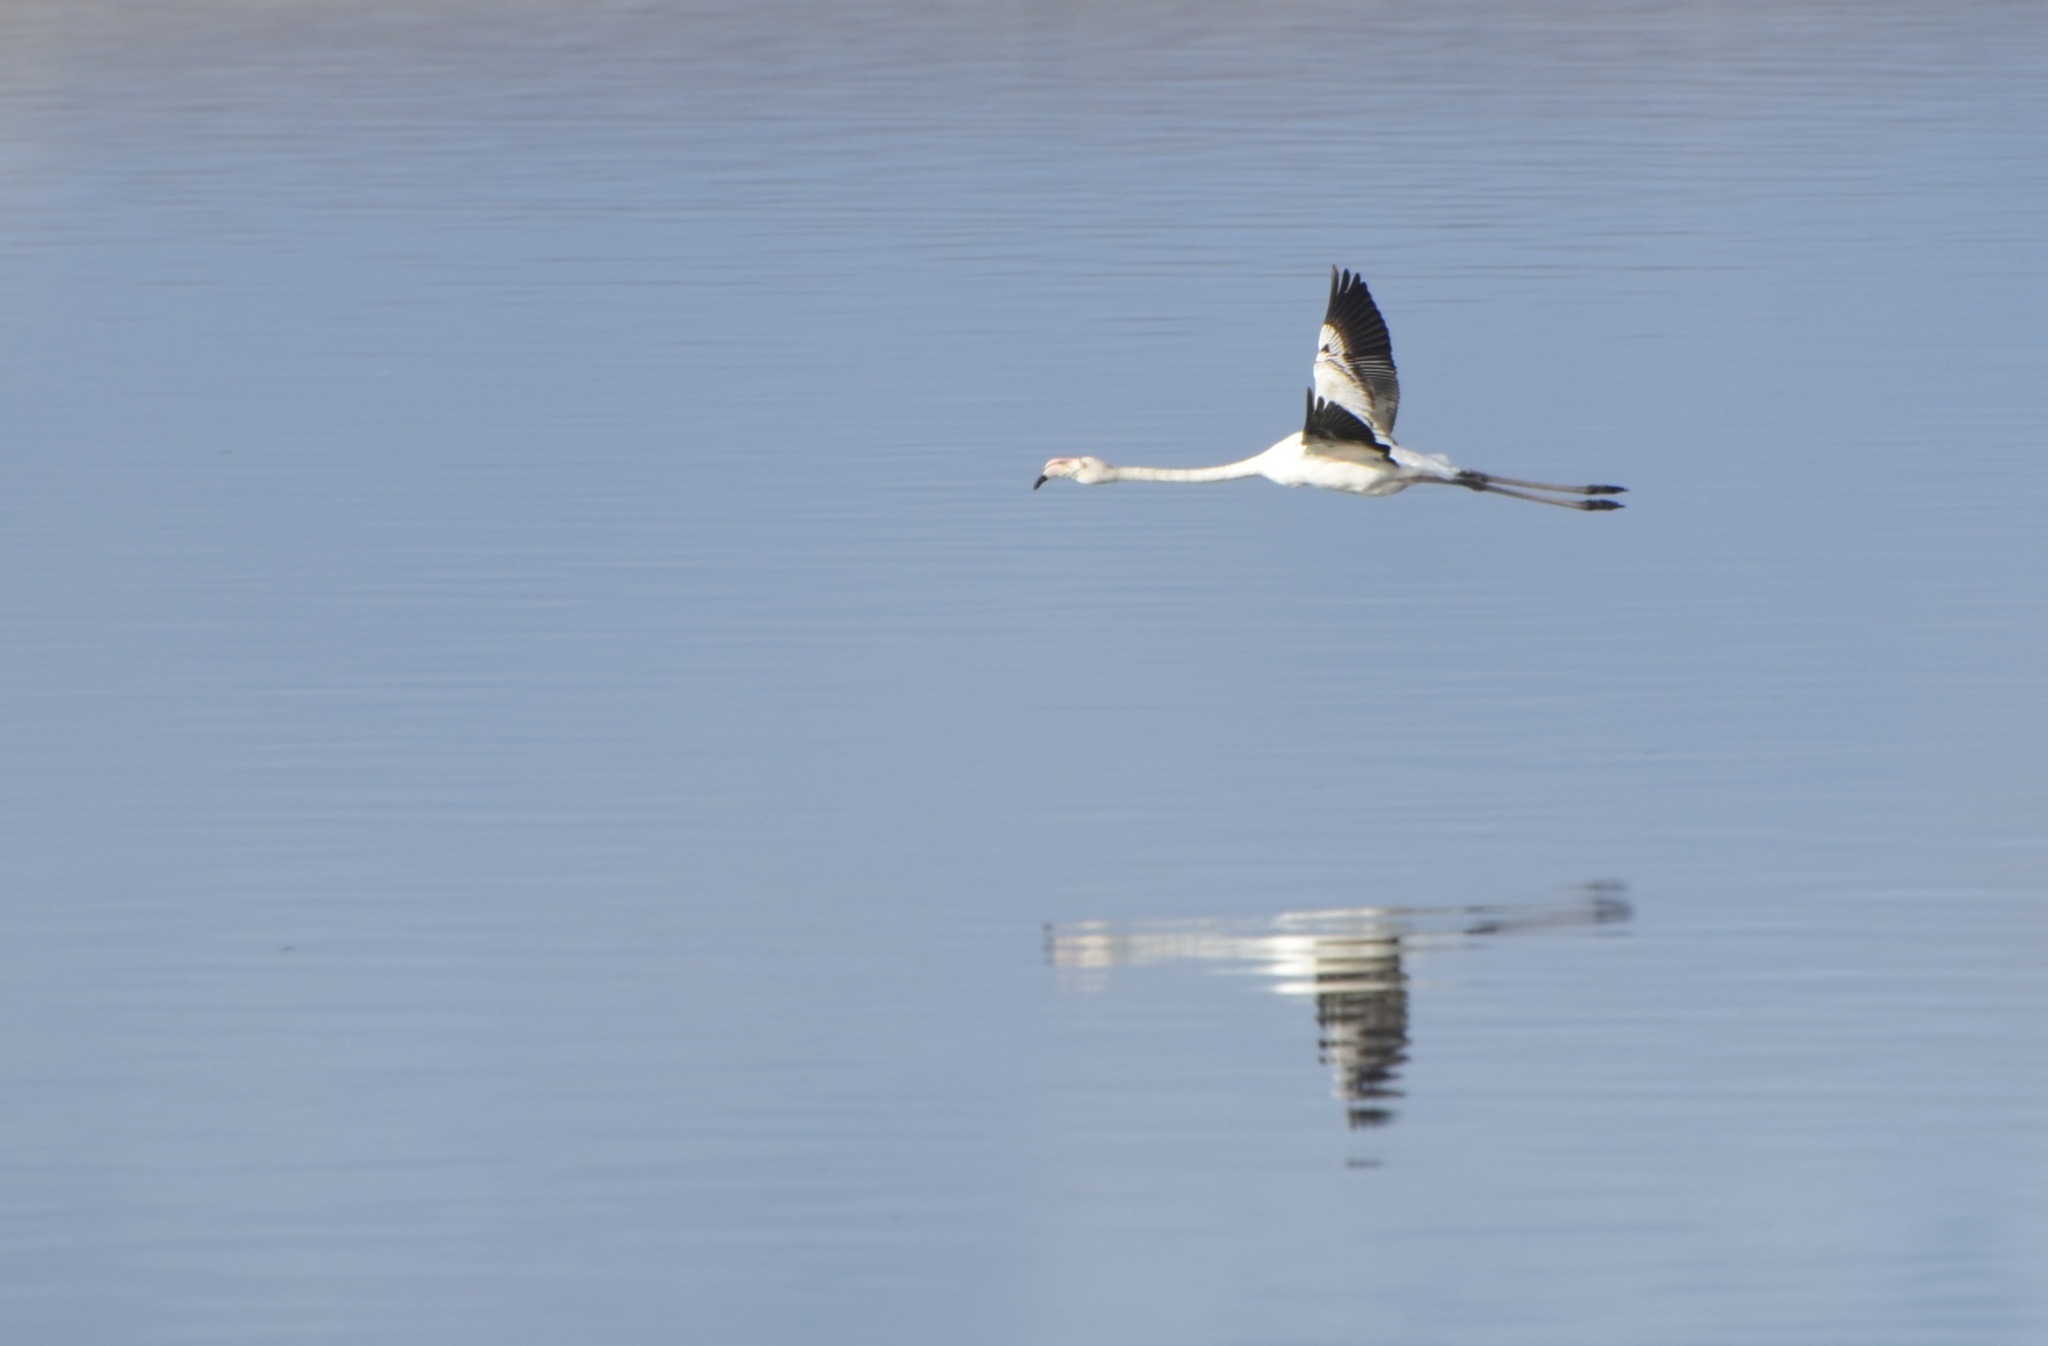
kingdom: Animalia
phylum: Chordata
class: Aves
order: Phoenicopteriformes
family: Phoenicopteridae
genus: Phoenicopterus
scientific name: Phoenicopterus roseus
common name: Greater flamingo
